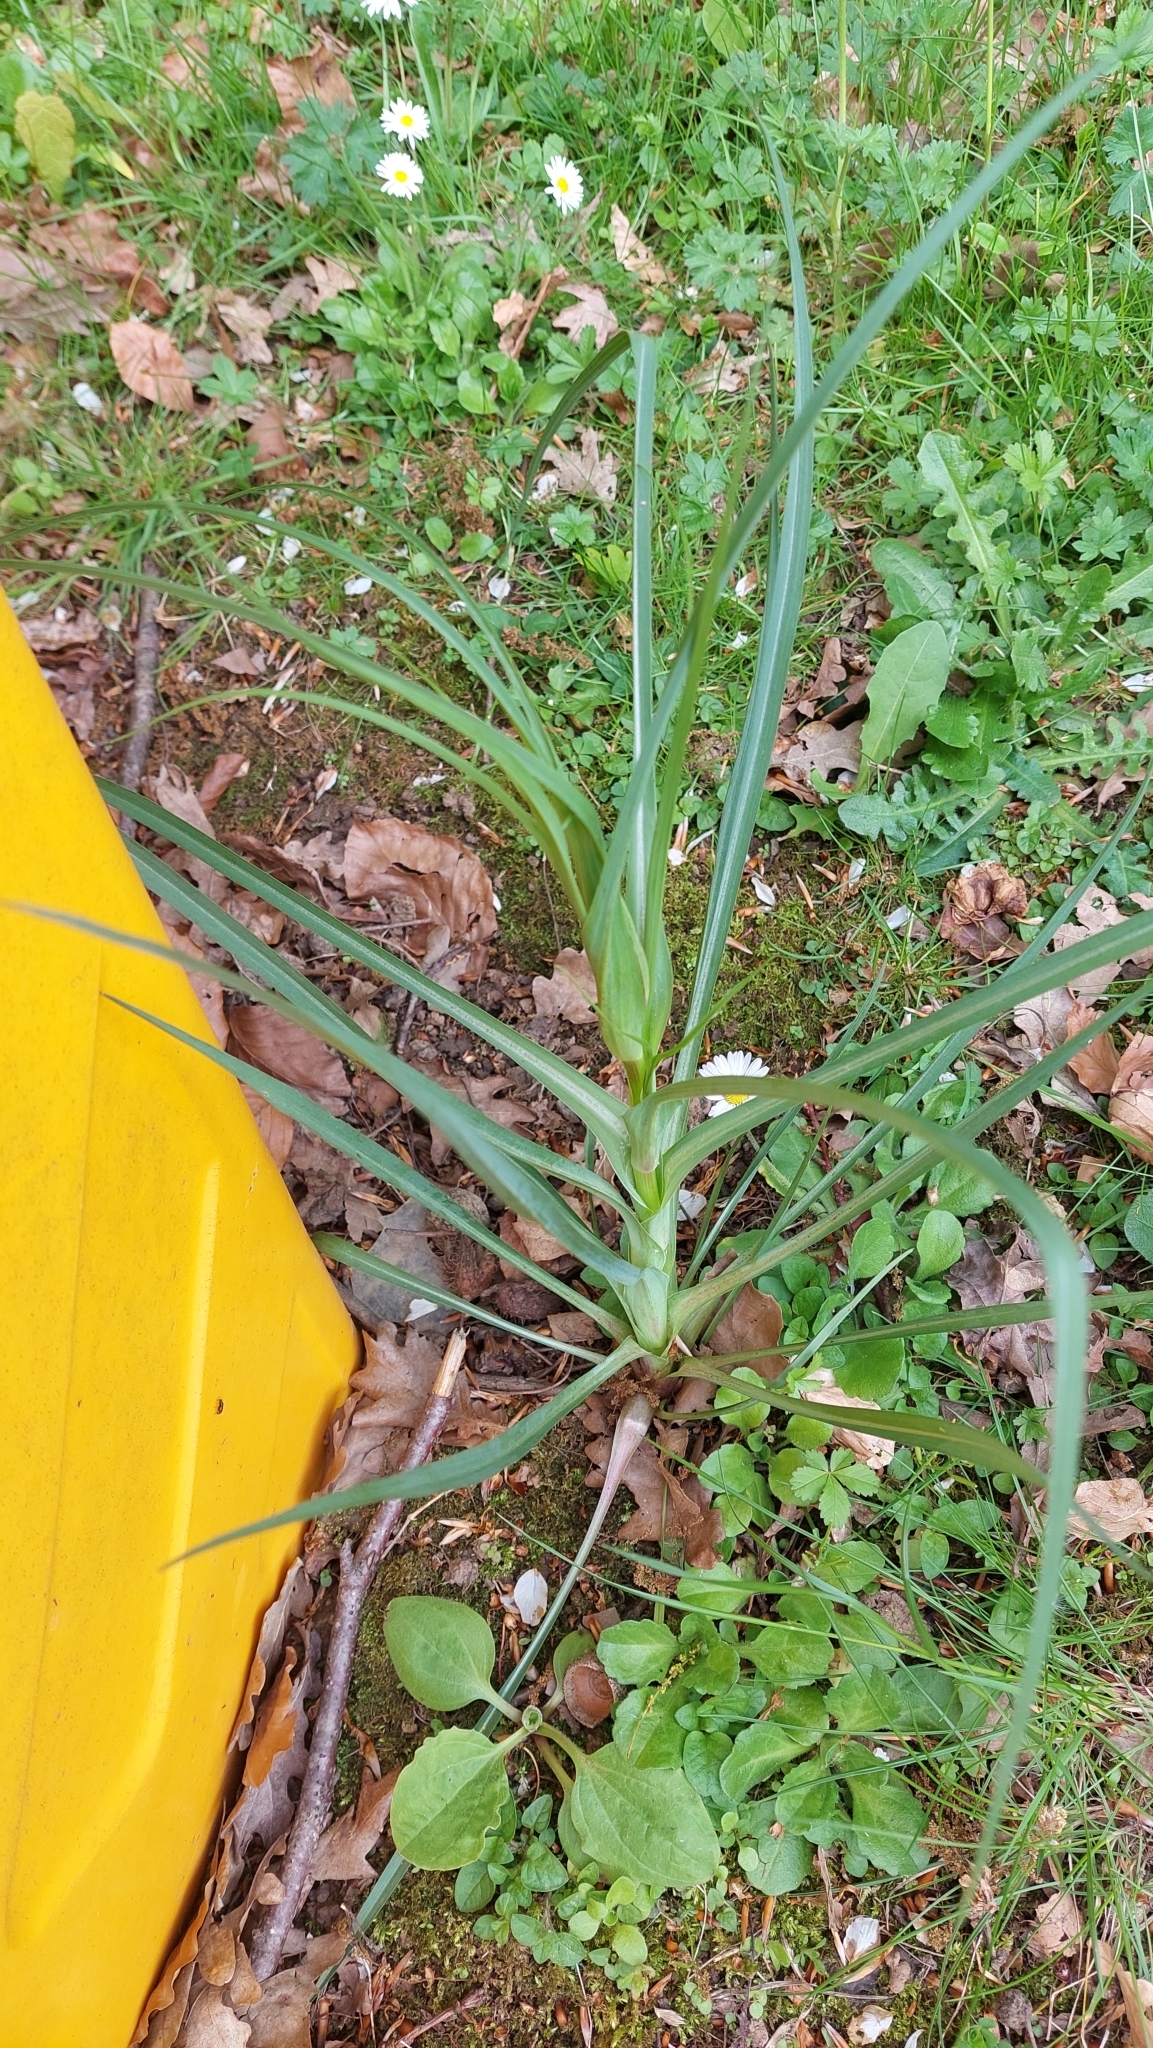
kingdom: Plantae
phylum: Tracheophyta
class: Magnoliopsida
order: Asterales
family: Asteraceae
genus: Tragopogon
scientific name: Tragopogon pratensis
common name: Goat's-beard
